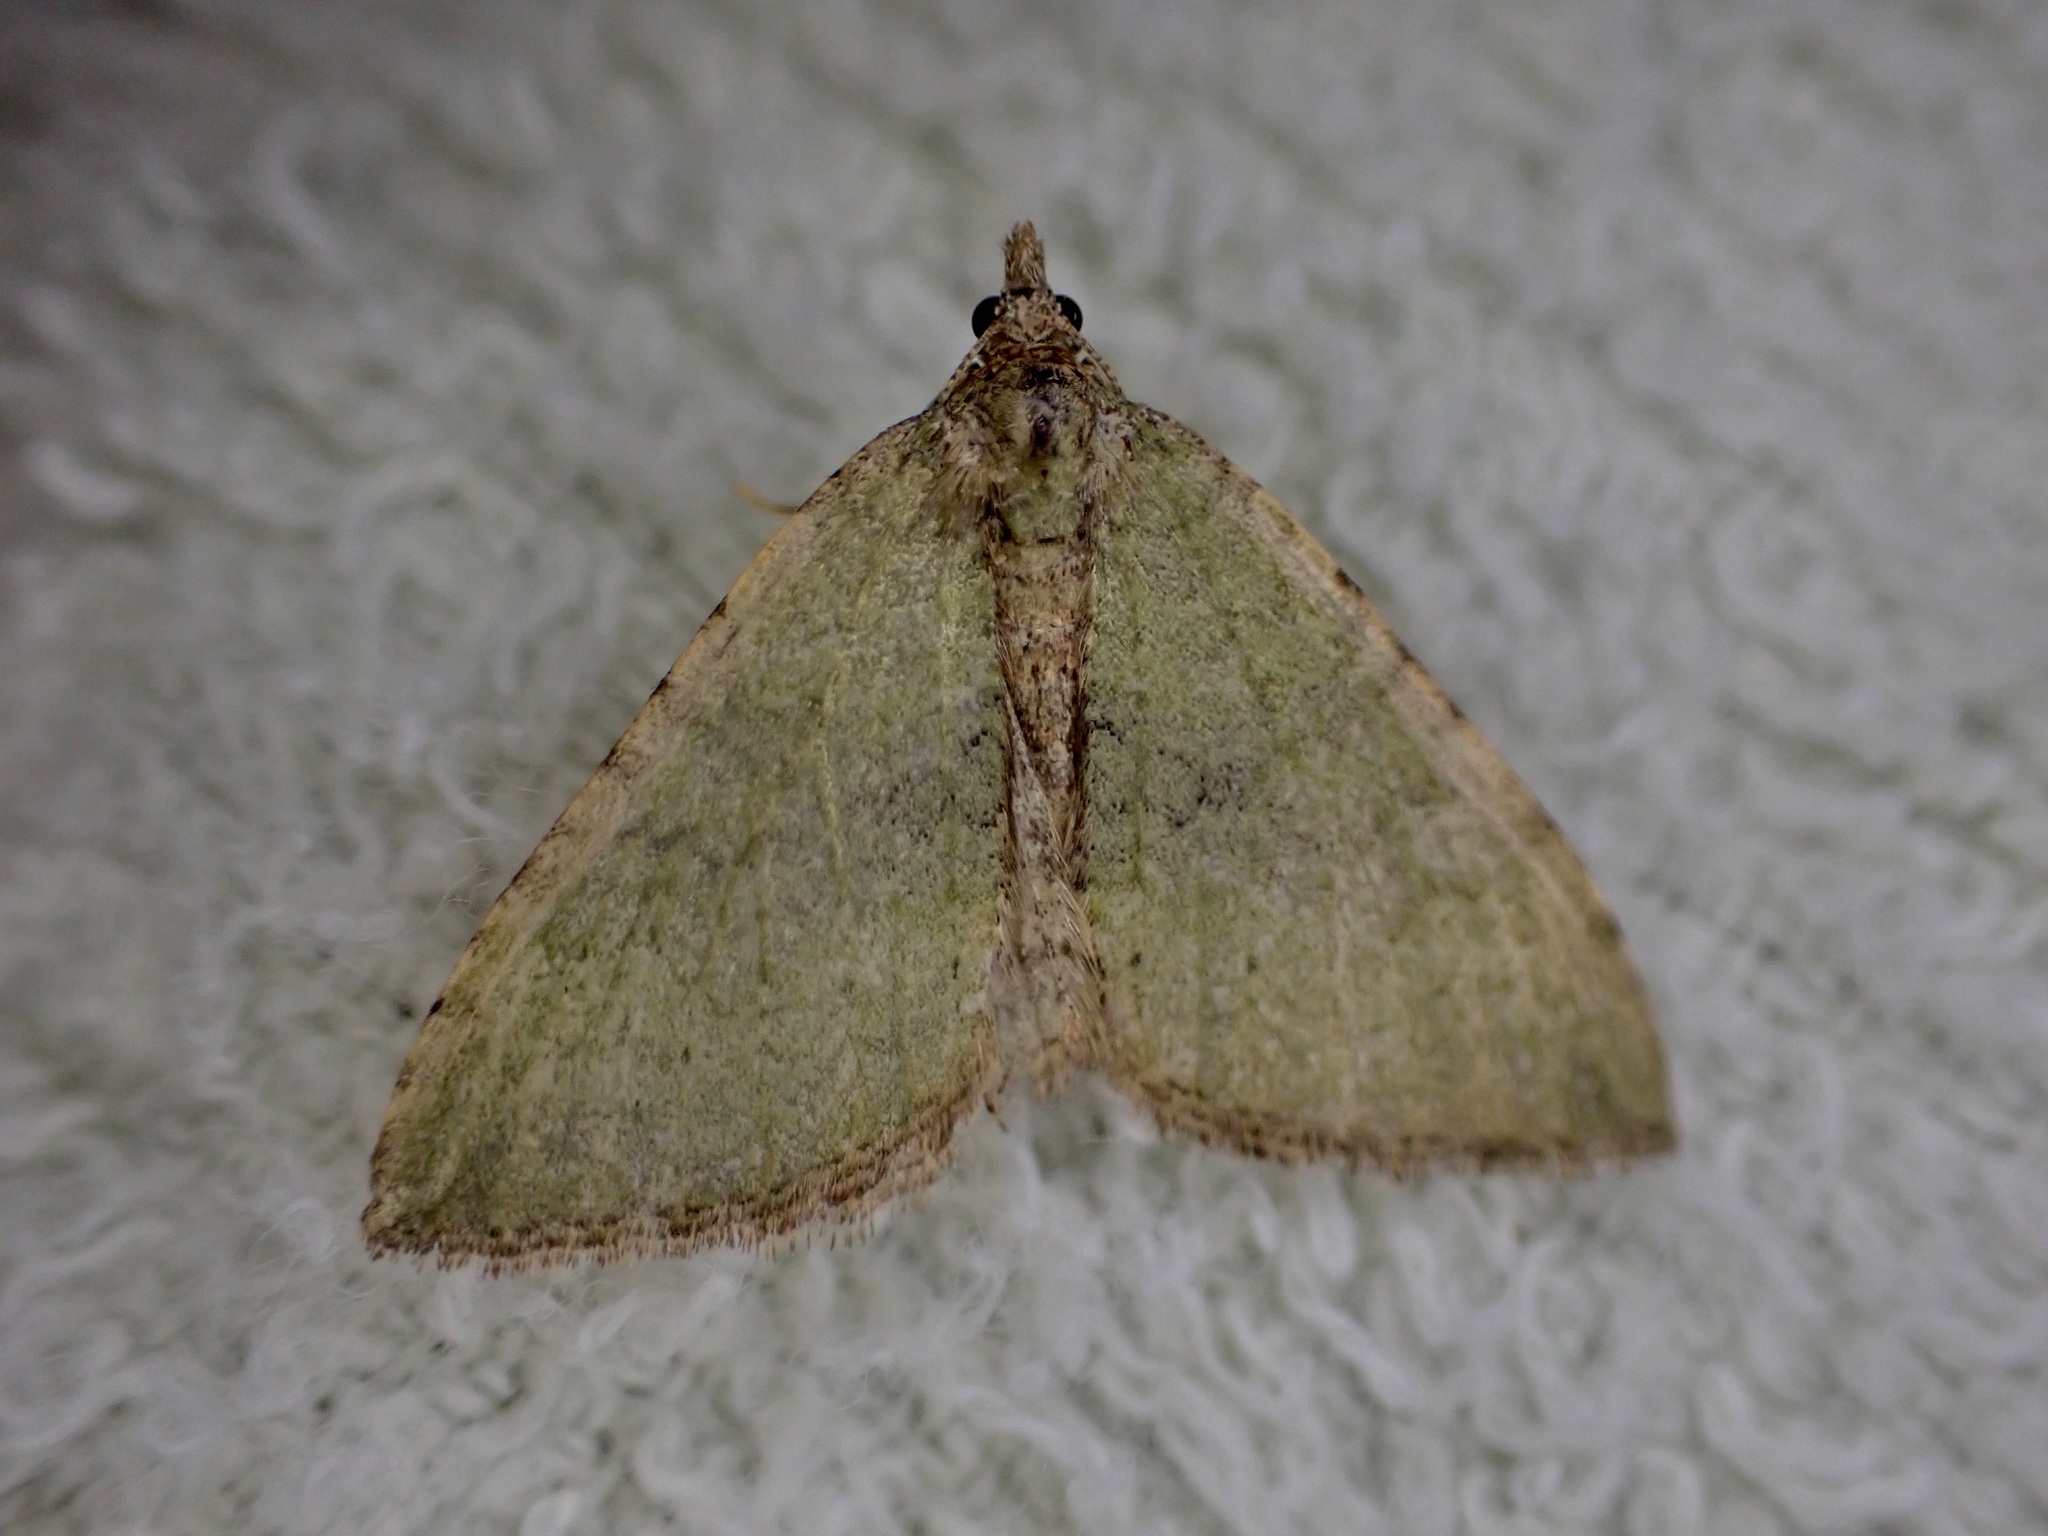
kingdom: Animalia
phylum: Arthropoda
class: Insecta
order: Lepidoptera
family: Geometridae
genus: Epyaxa
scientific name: Epyaxa rosearia
